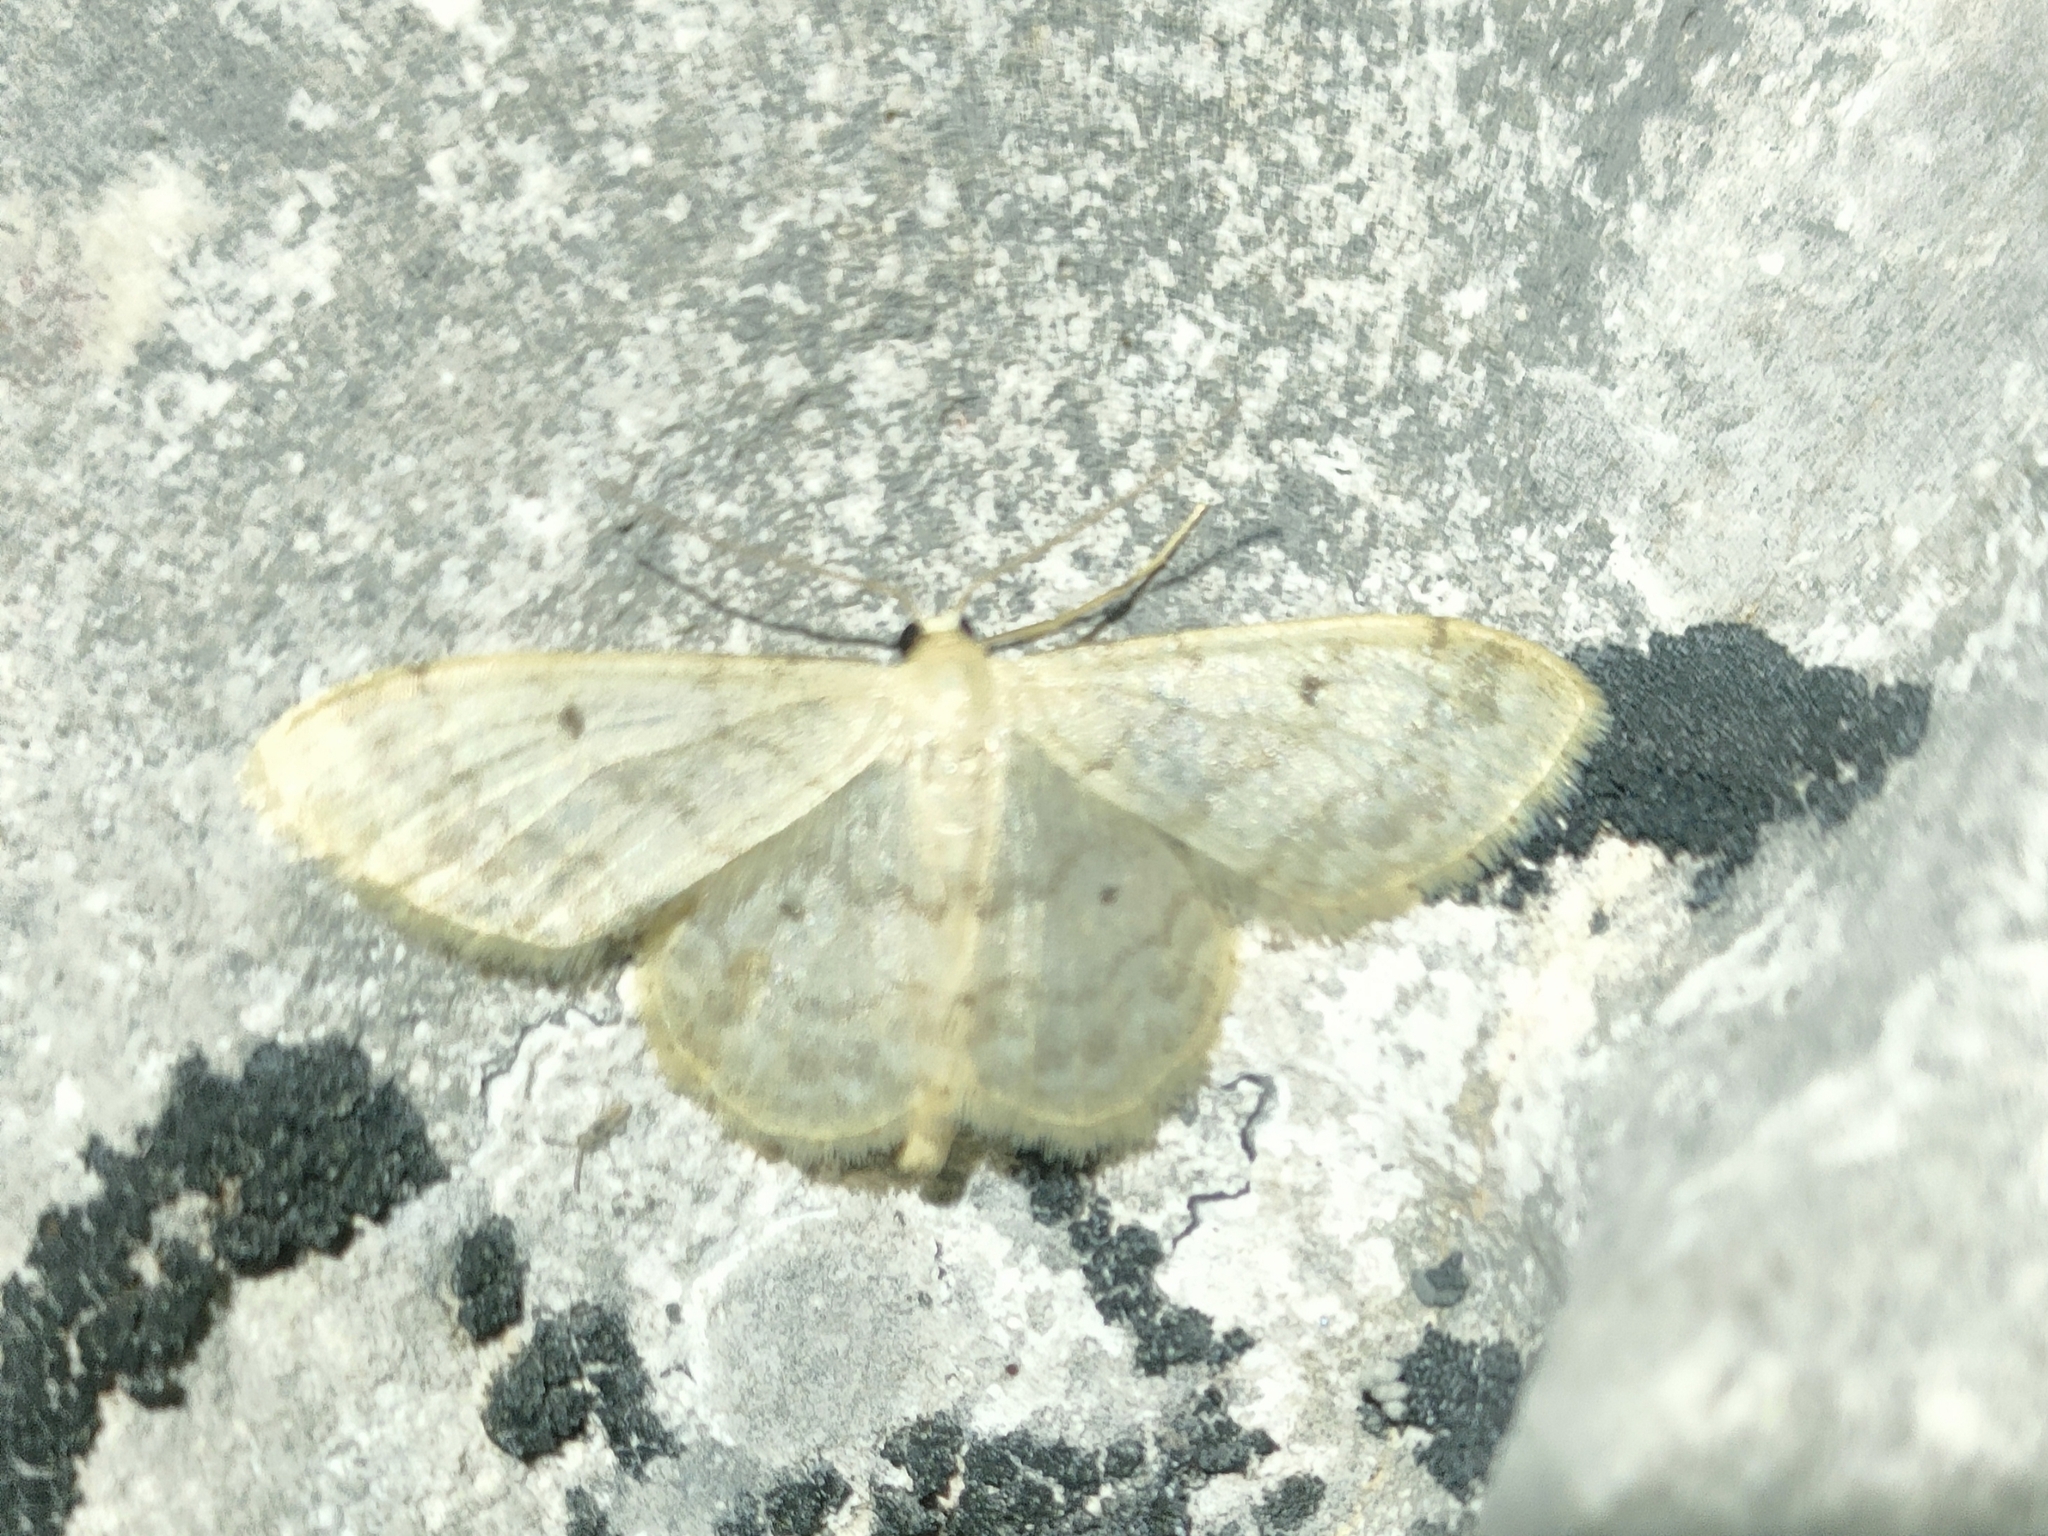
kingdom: Animalia
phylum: Arthropoda
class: Insecta
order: Lepidoptera
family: Geometridae
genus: Idaea
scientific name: Idaea biselata
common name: Small fan-footed wave
